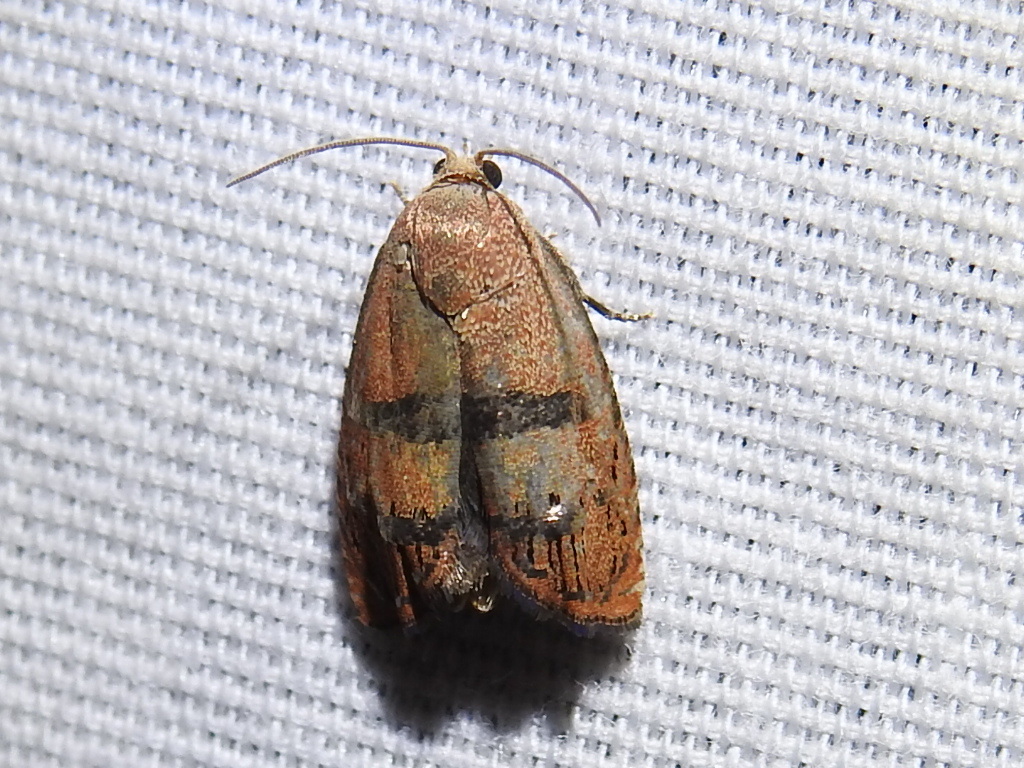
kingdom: Animalia
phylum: Arthropoda
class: Insecta
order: Lepidoptera
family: Tortricidae
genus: Cydia
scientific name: Cydia latiferreana
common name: Filbertworm moth
